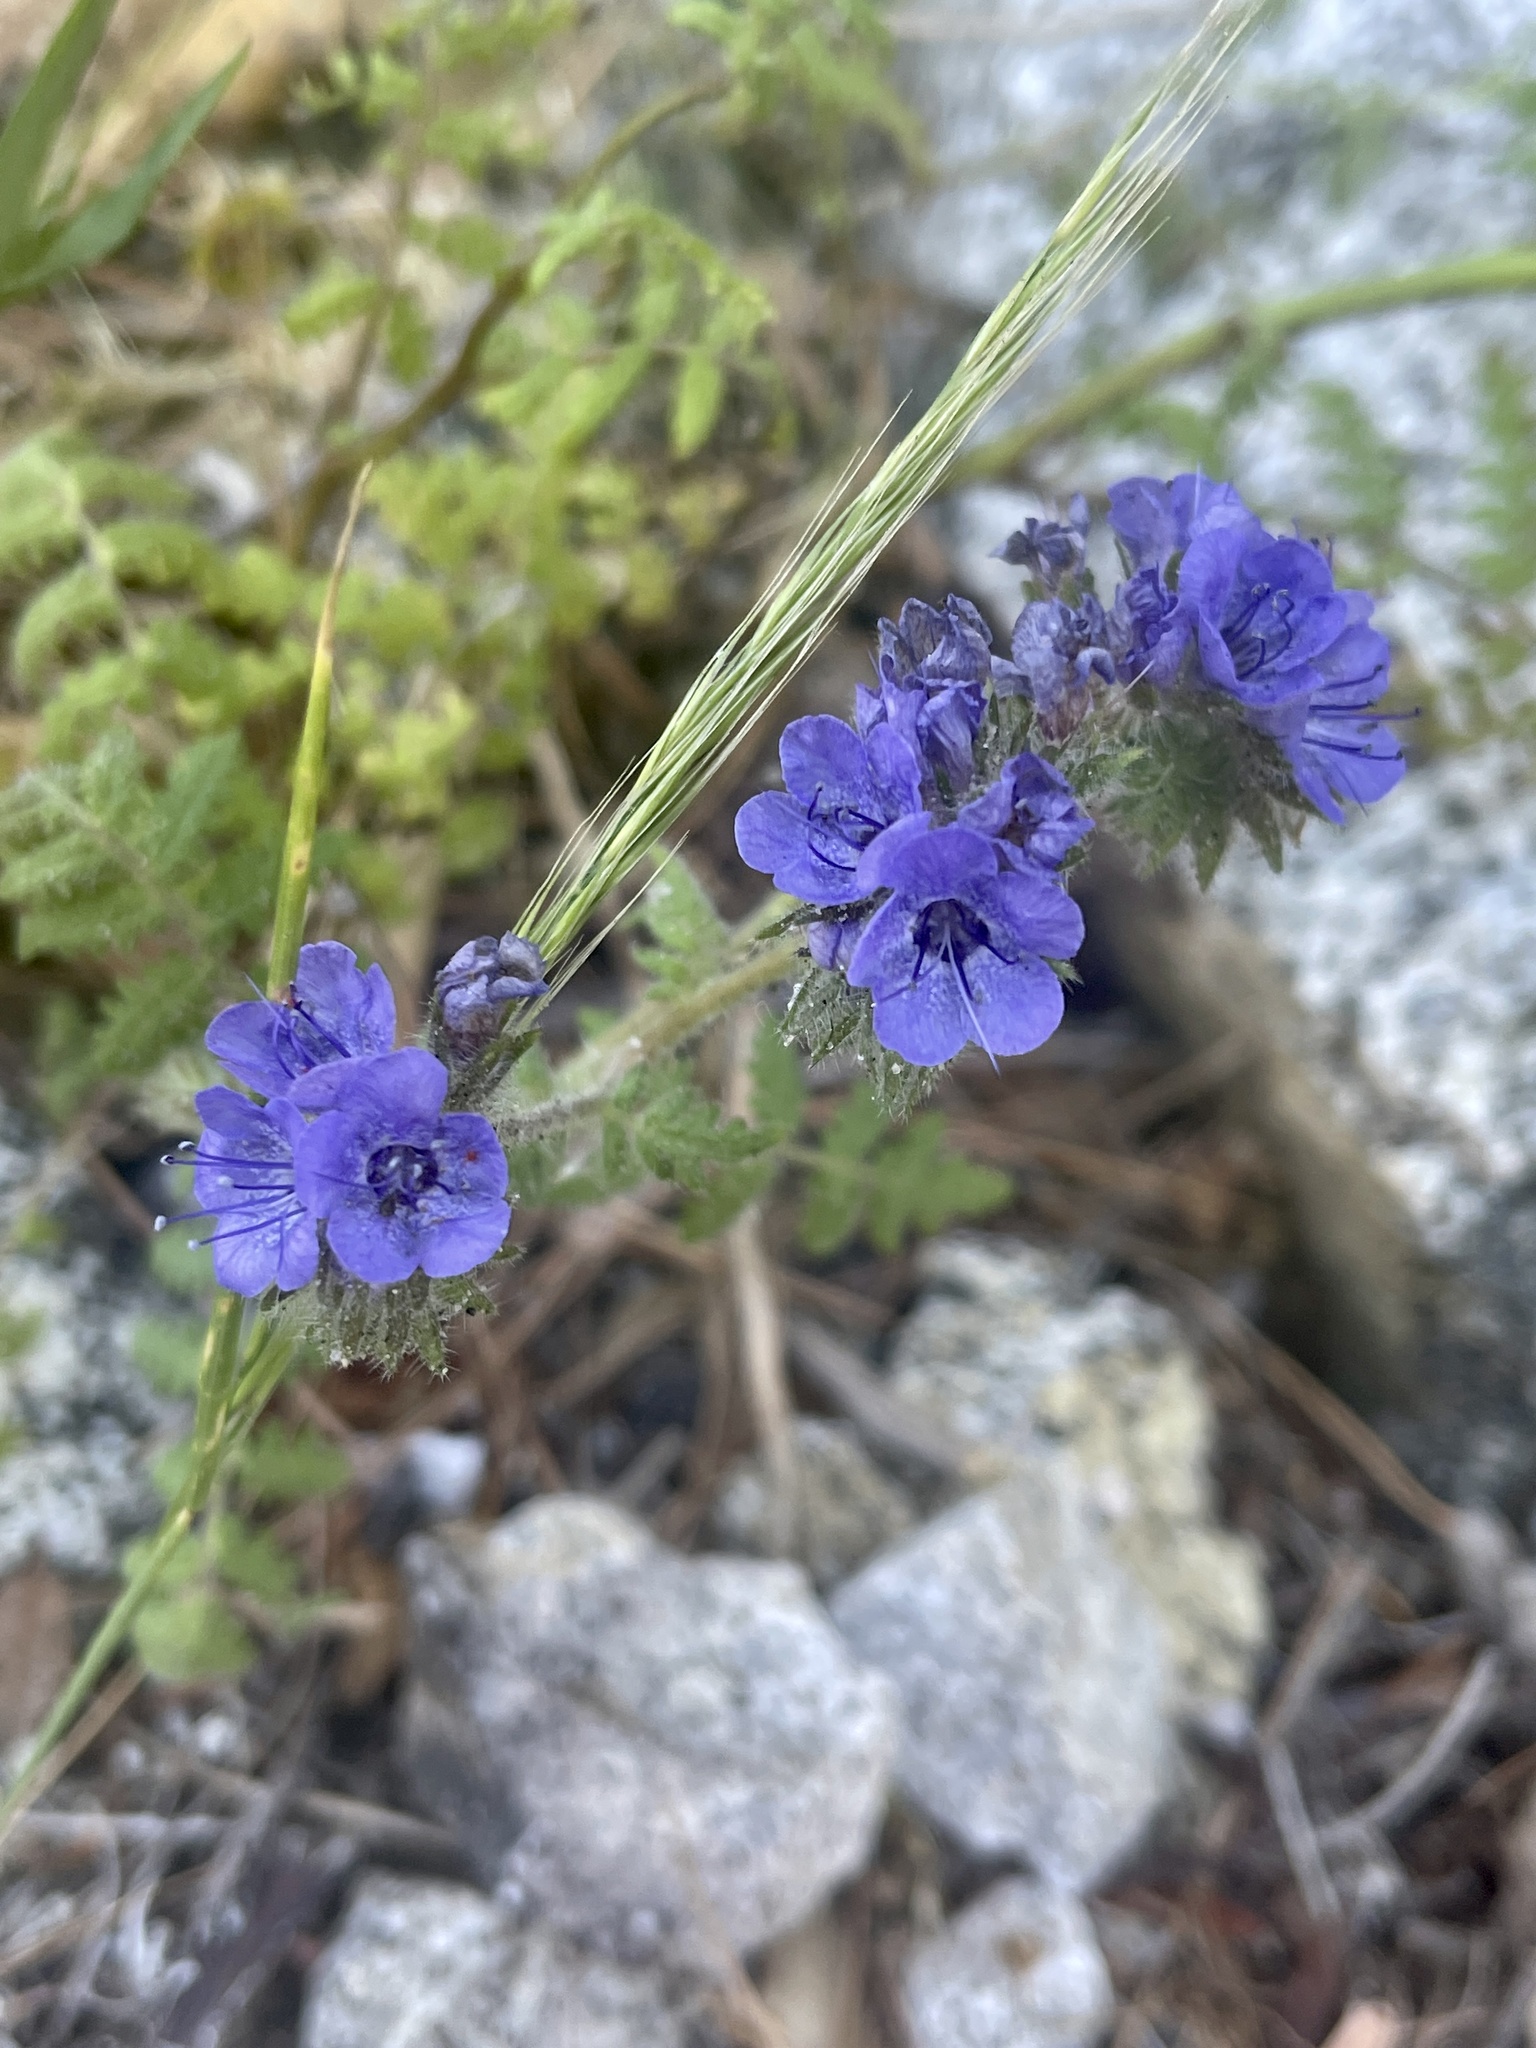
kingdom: Plantae
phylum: Tracheophyta
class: Magnoliopsida
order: Boraginales
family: Hydrophyllaceae
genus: Phacelia
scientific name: Phacelia distans
